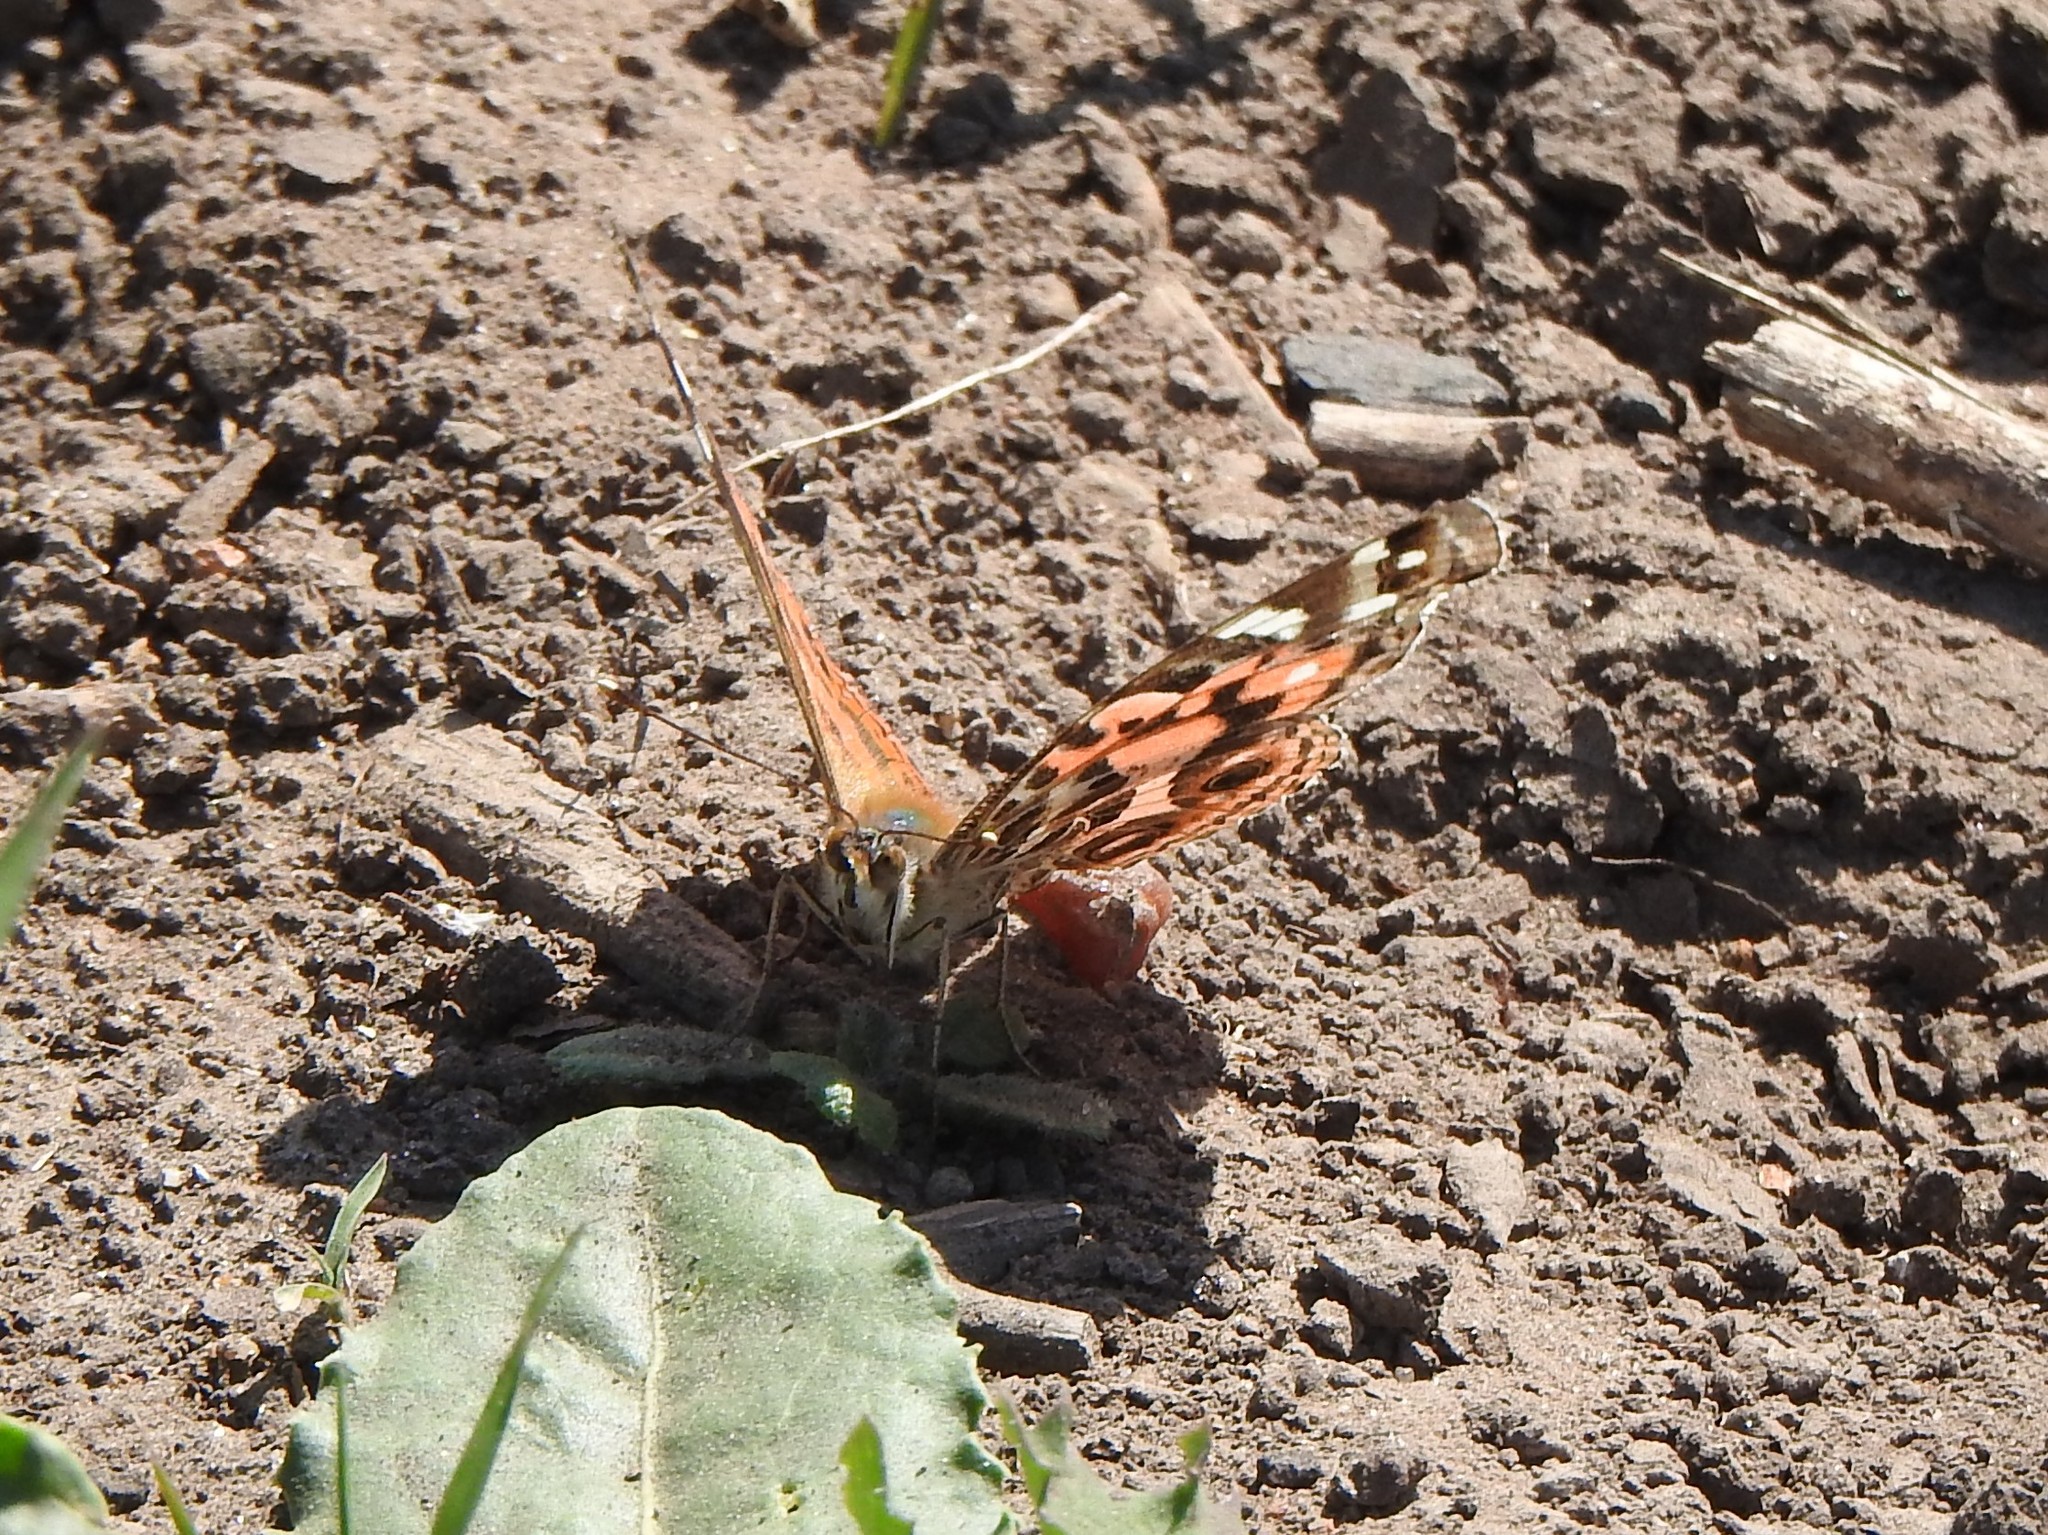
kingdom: Animalia
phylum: Arthropoda
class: Insecta
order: Lepidoptera
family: Nymphalidae
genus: Vanessa
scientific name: Vanessa braziliensis
